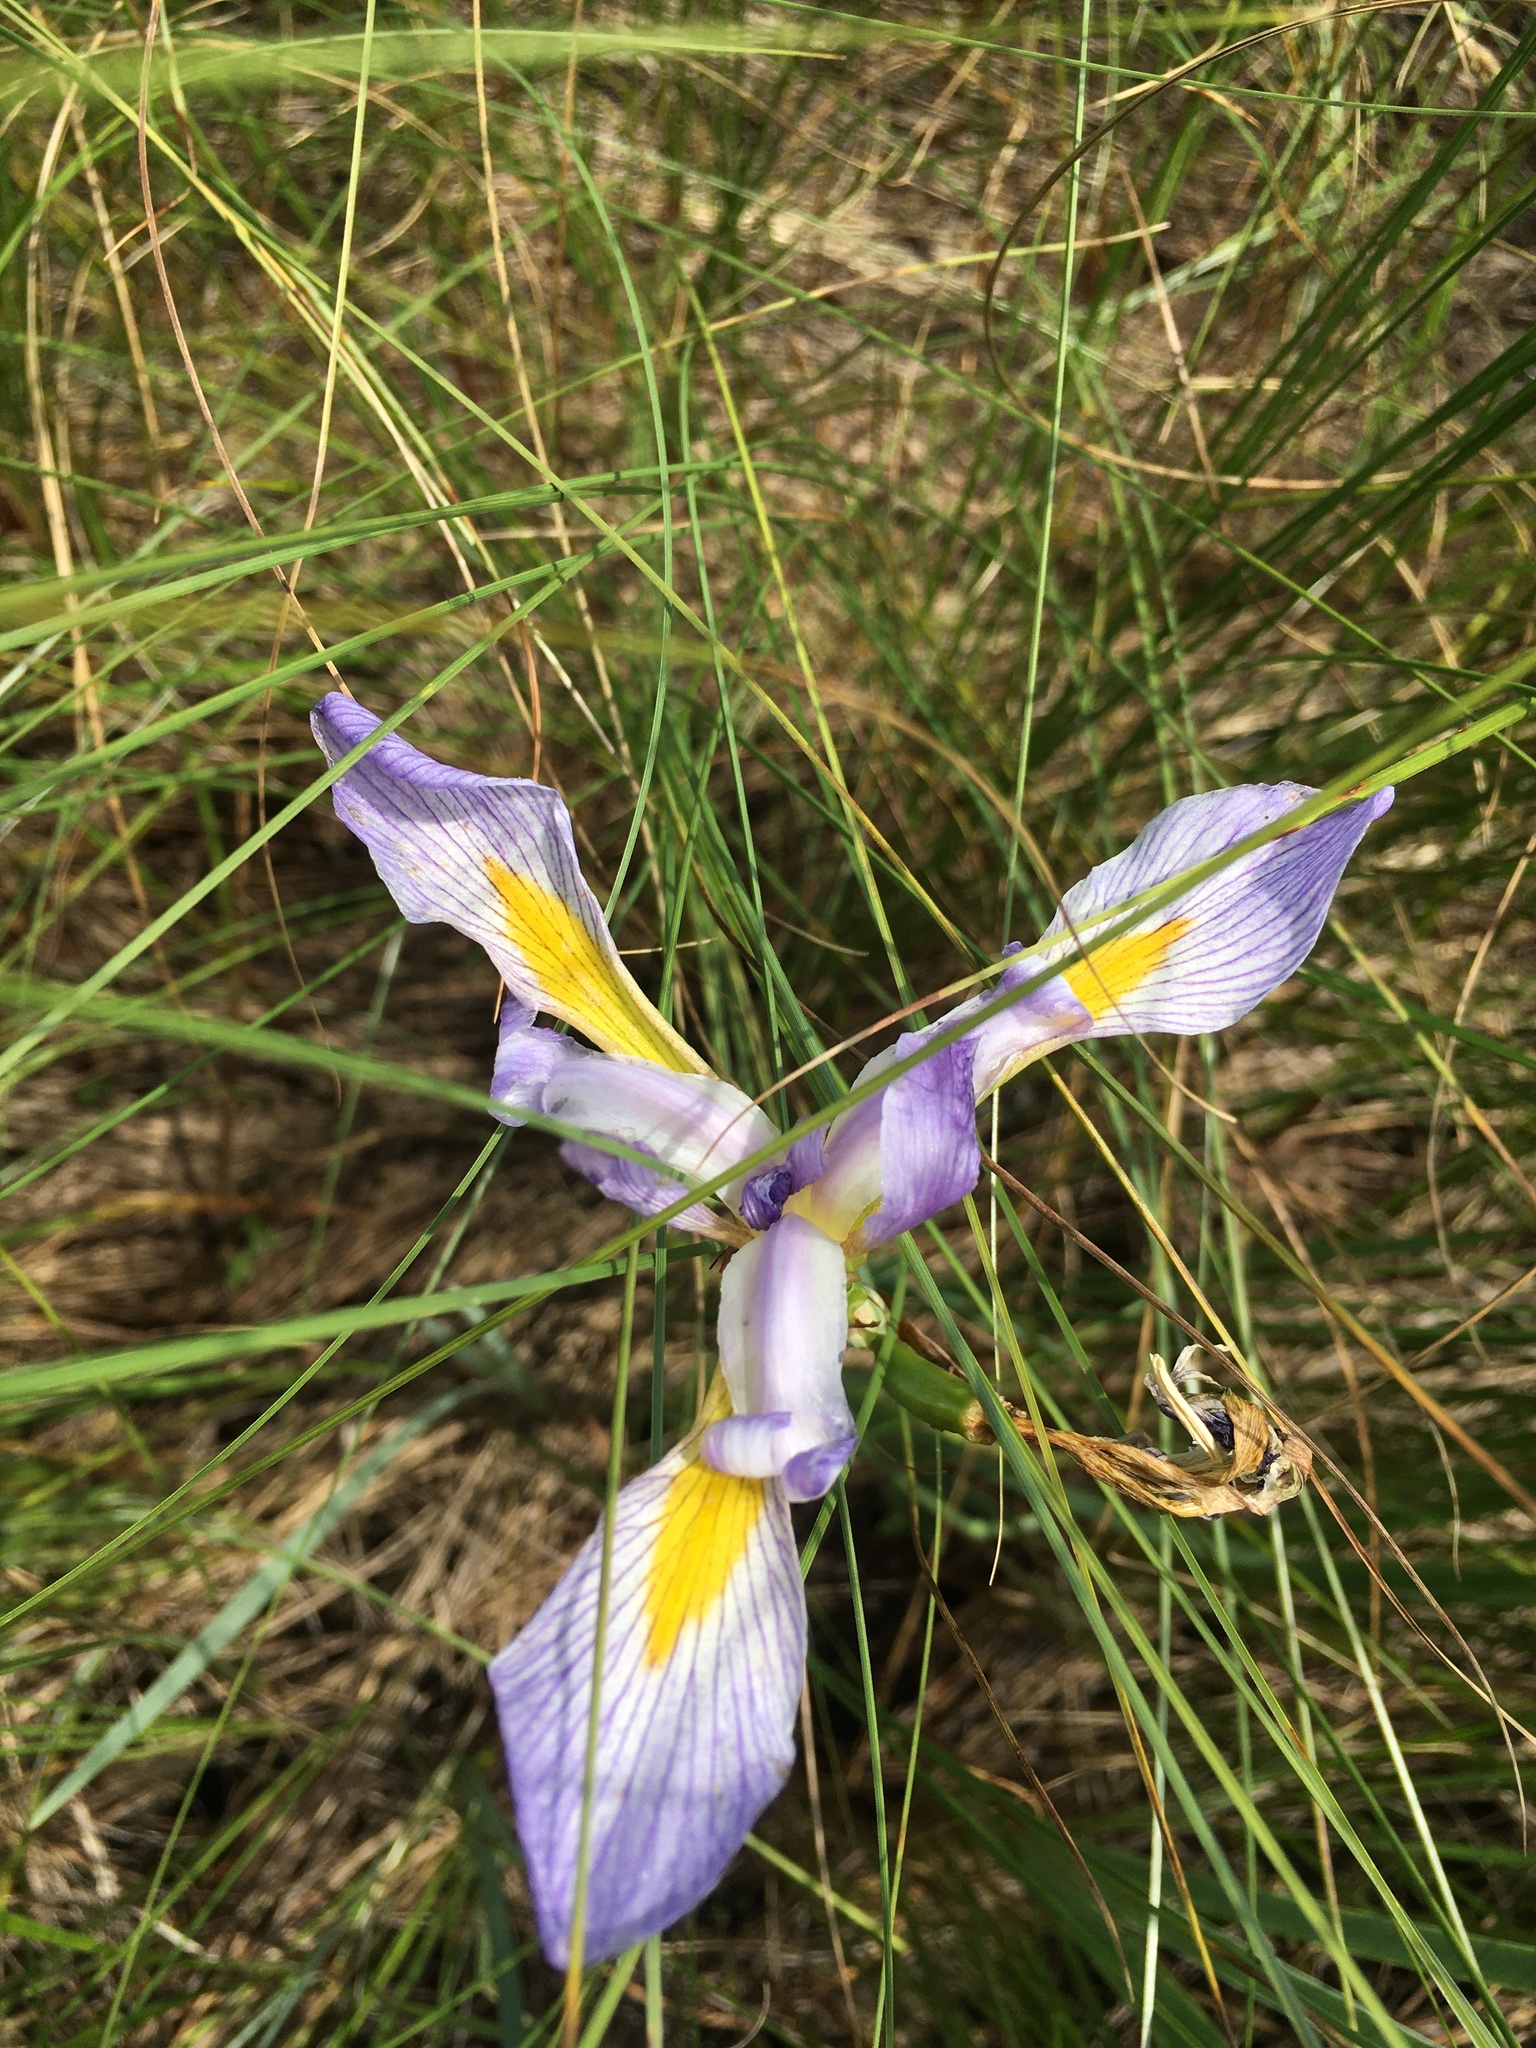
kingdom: Plantae
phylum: Tracheophyta
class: Liliopsida
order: Asparagales
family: Iridaceae
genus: Iris
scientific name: Iris virginica
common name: Southern blue flag
